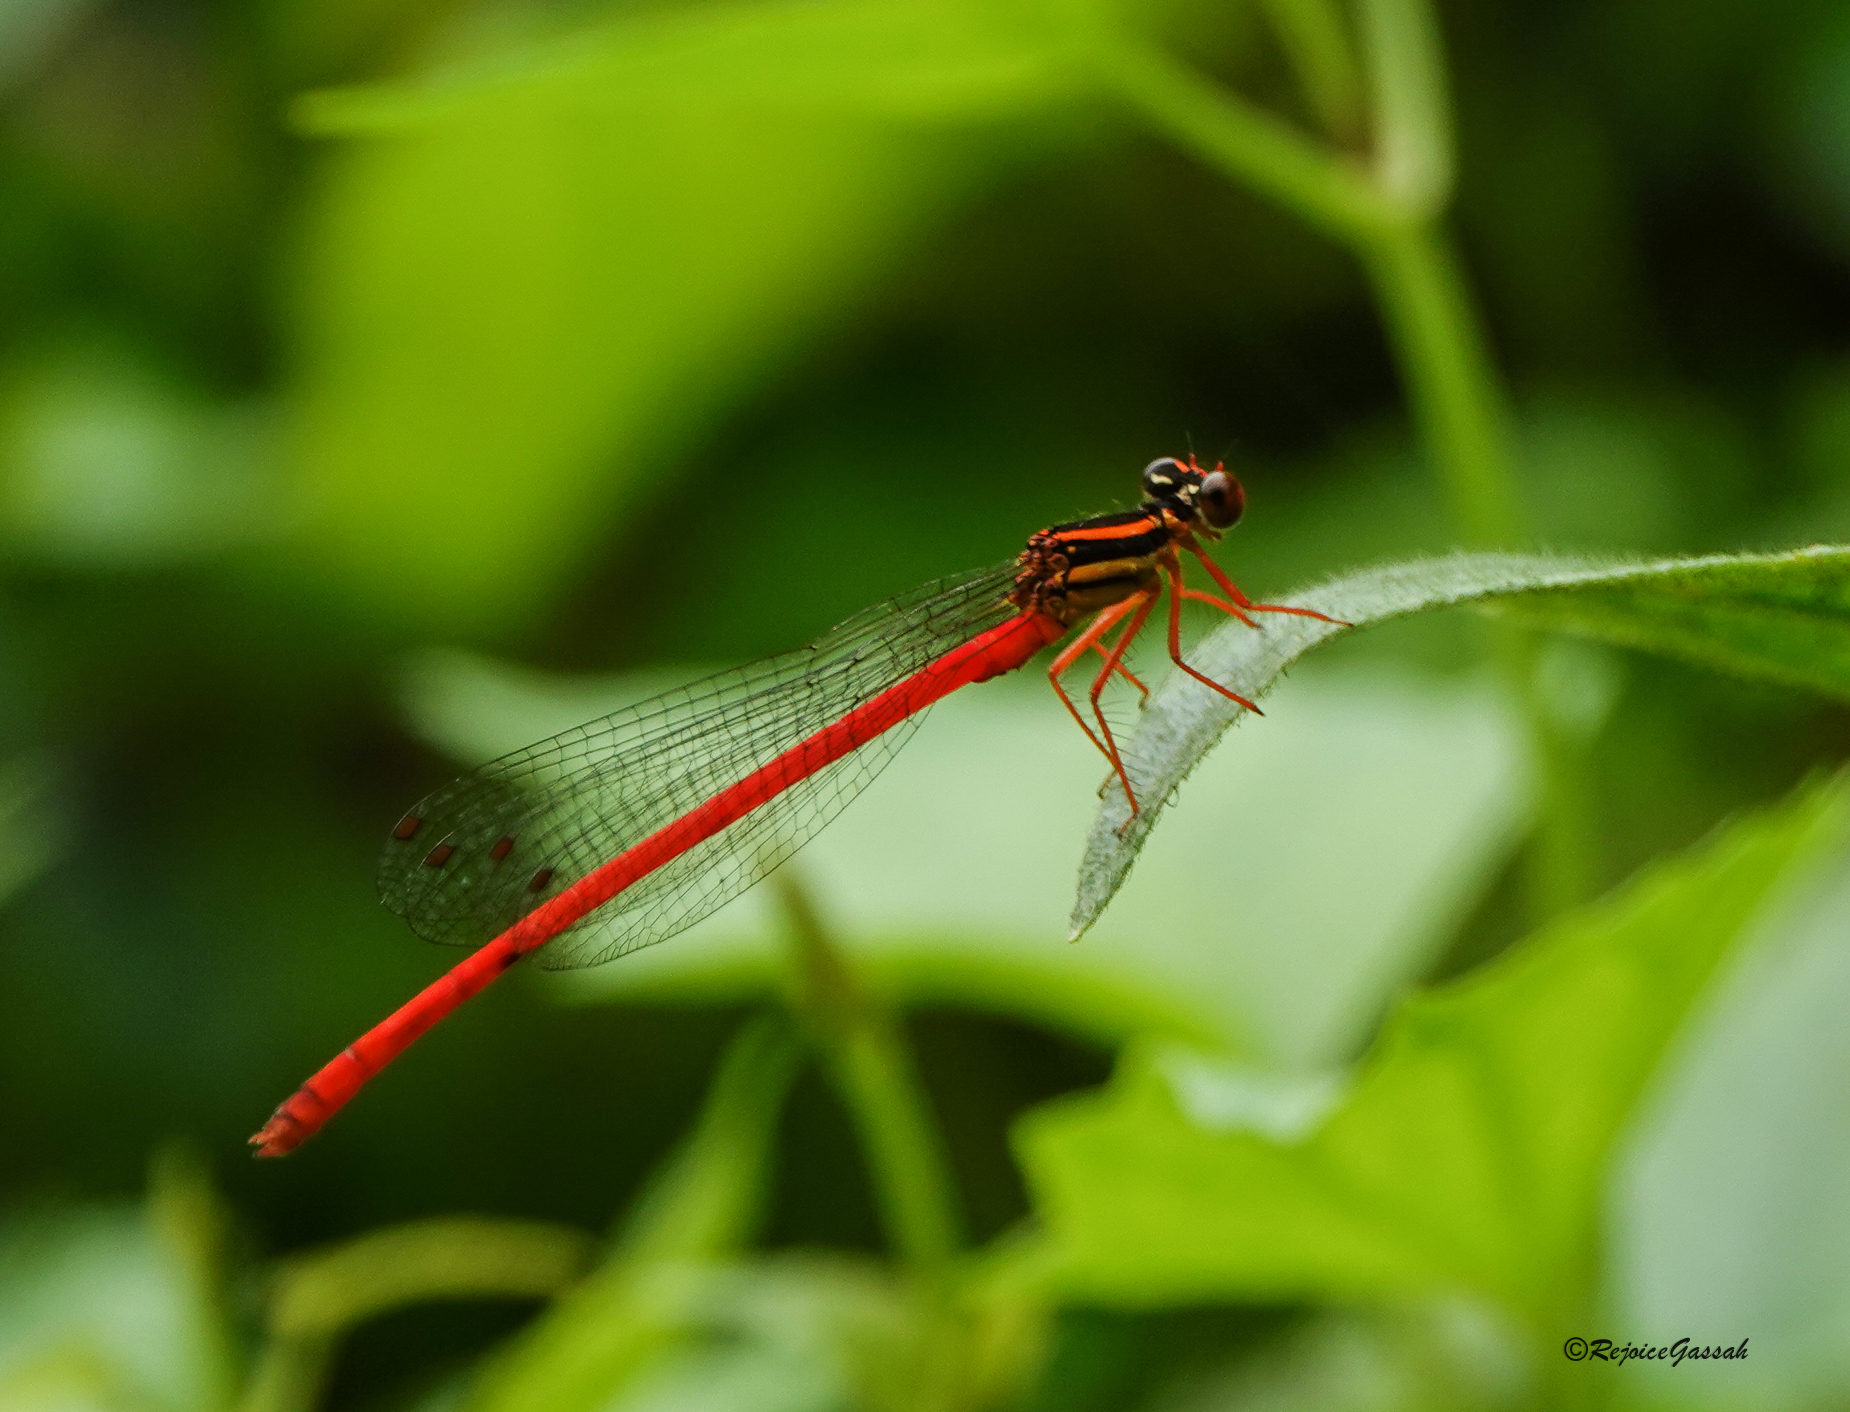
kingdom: Animalia
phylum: Arthropoda
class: Insecta
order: Odonata
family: Platycnemididae
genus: Calicnemia
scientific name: Calicnemia eximia
